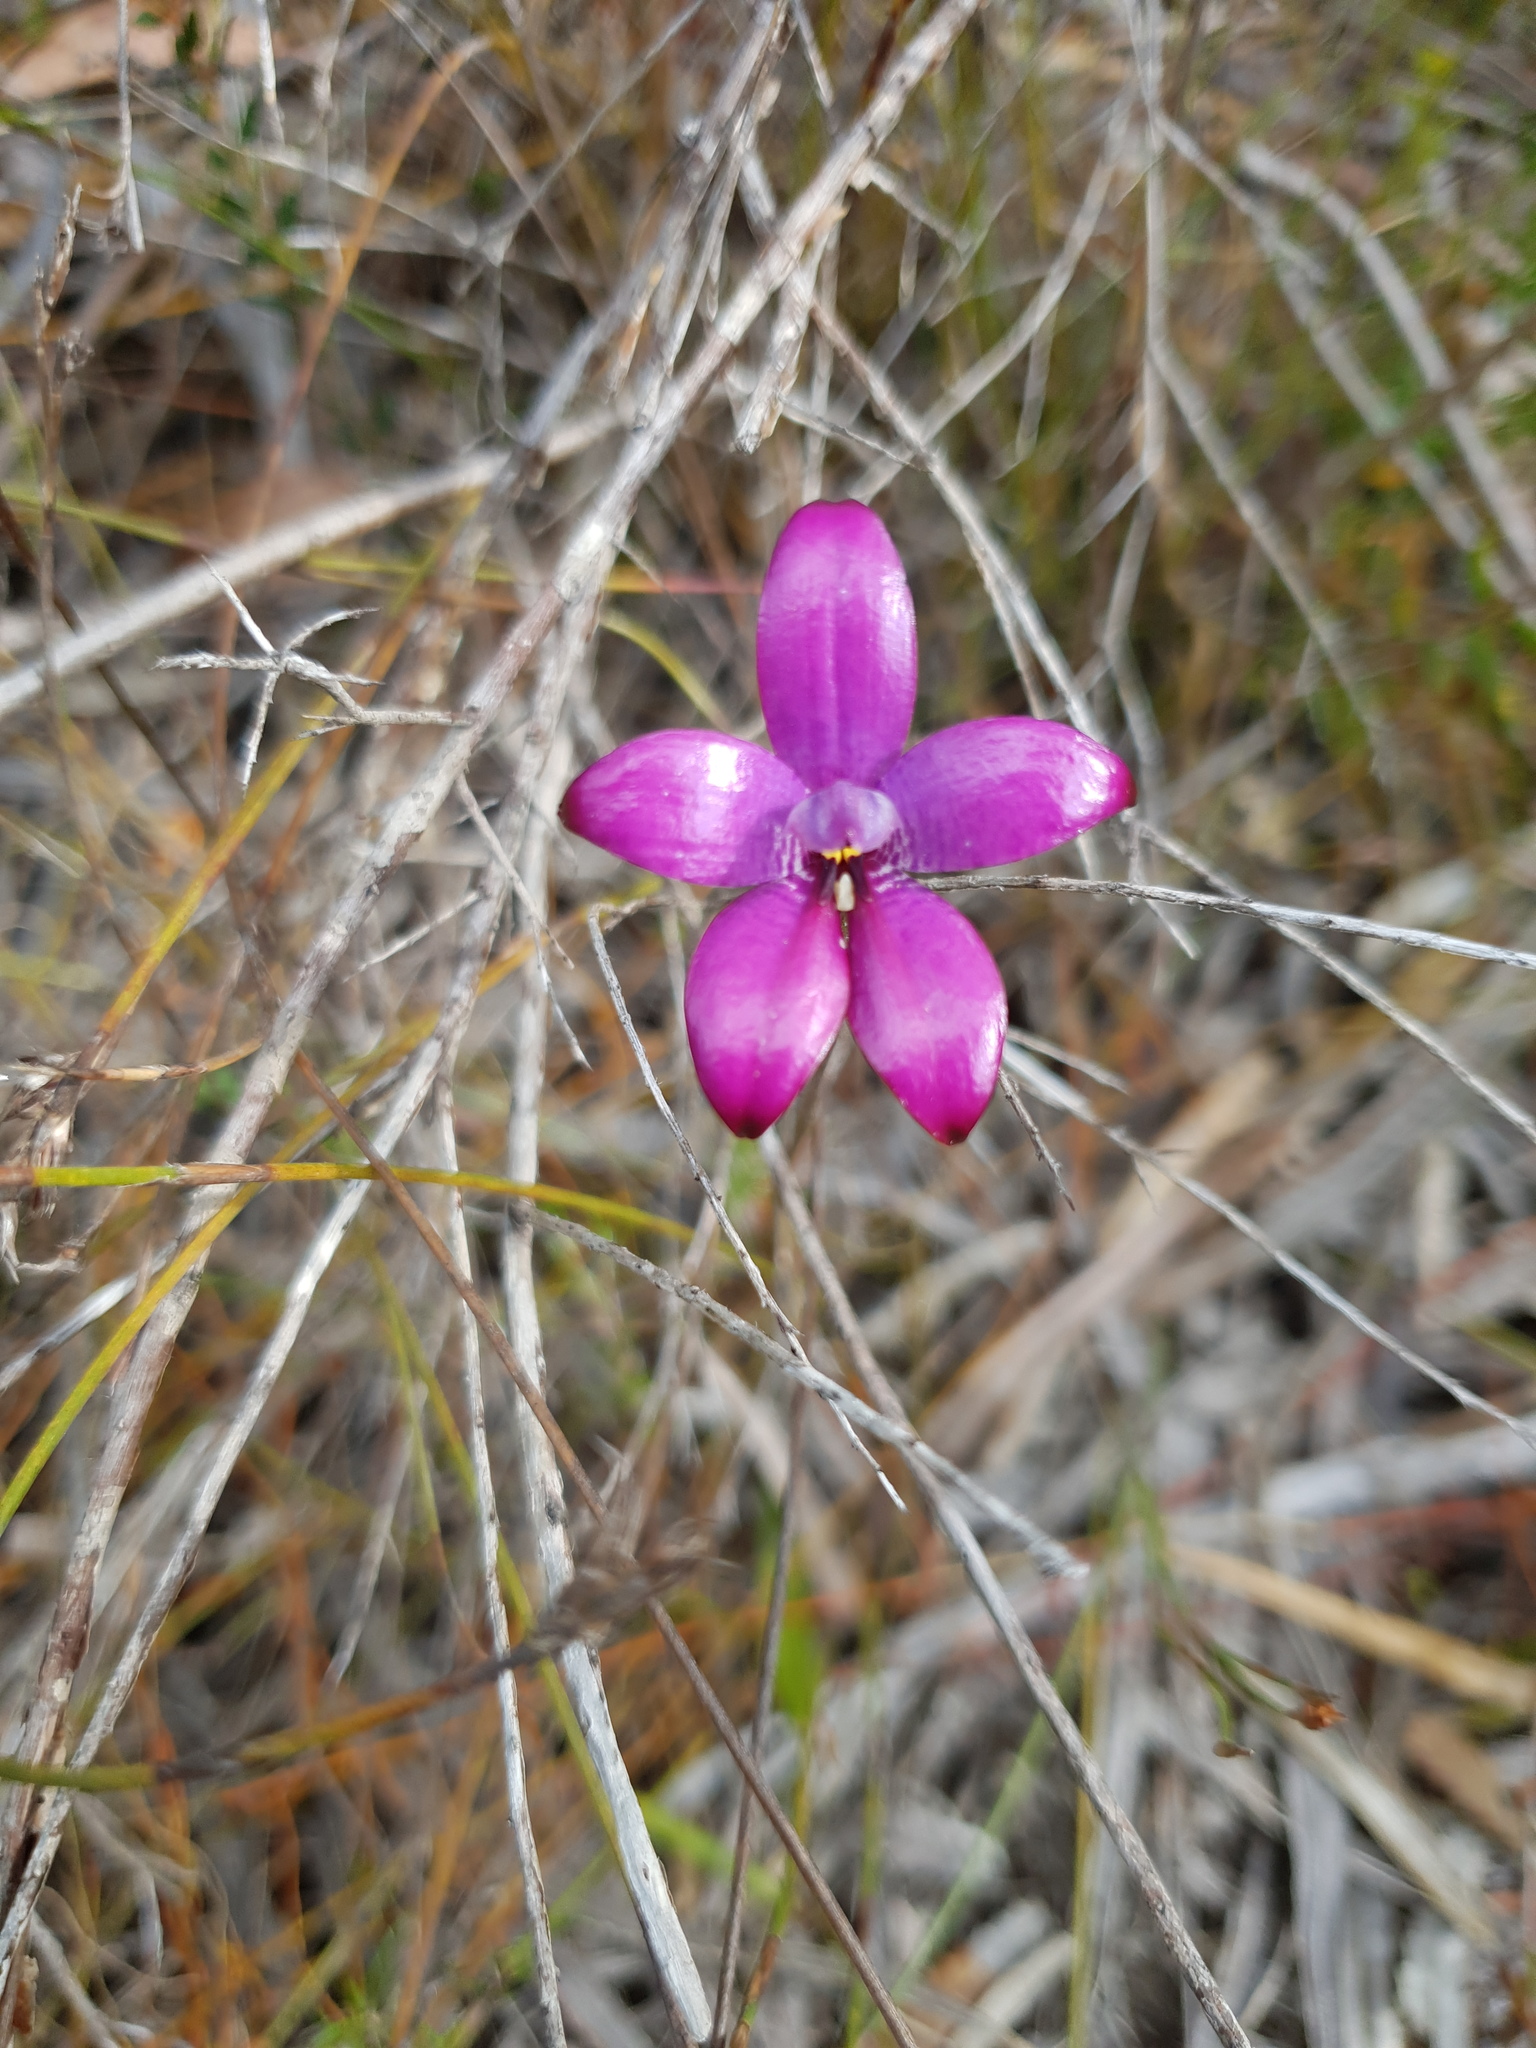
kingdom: Plantae
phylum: Tracheophyta
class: Liliopsida
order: Asparagales
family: Orchidaceae
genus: Caladenia
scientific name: Caladenia emarginata
